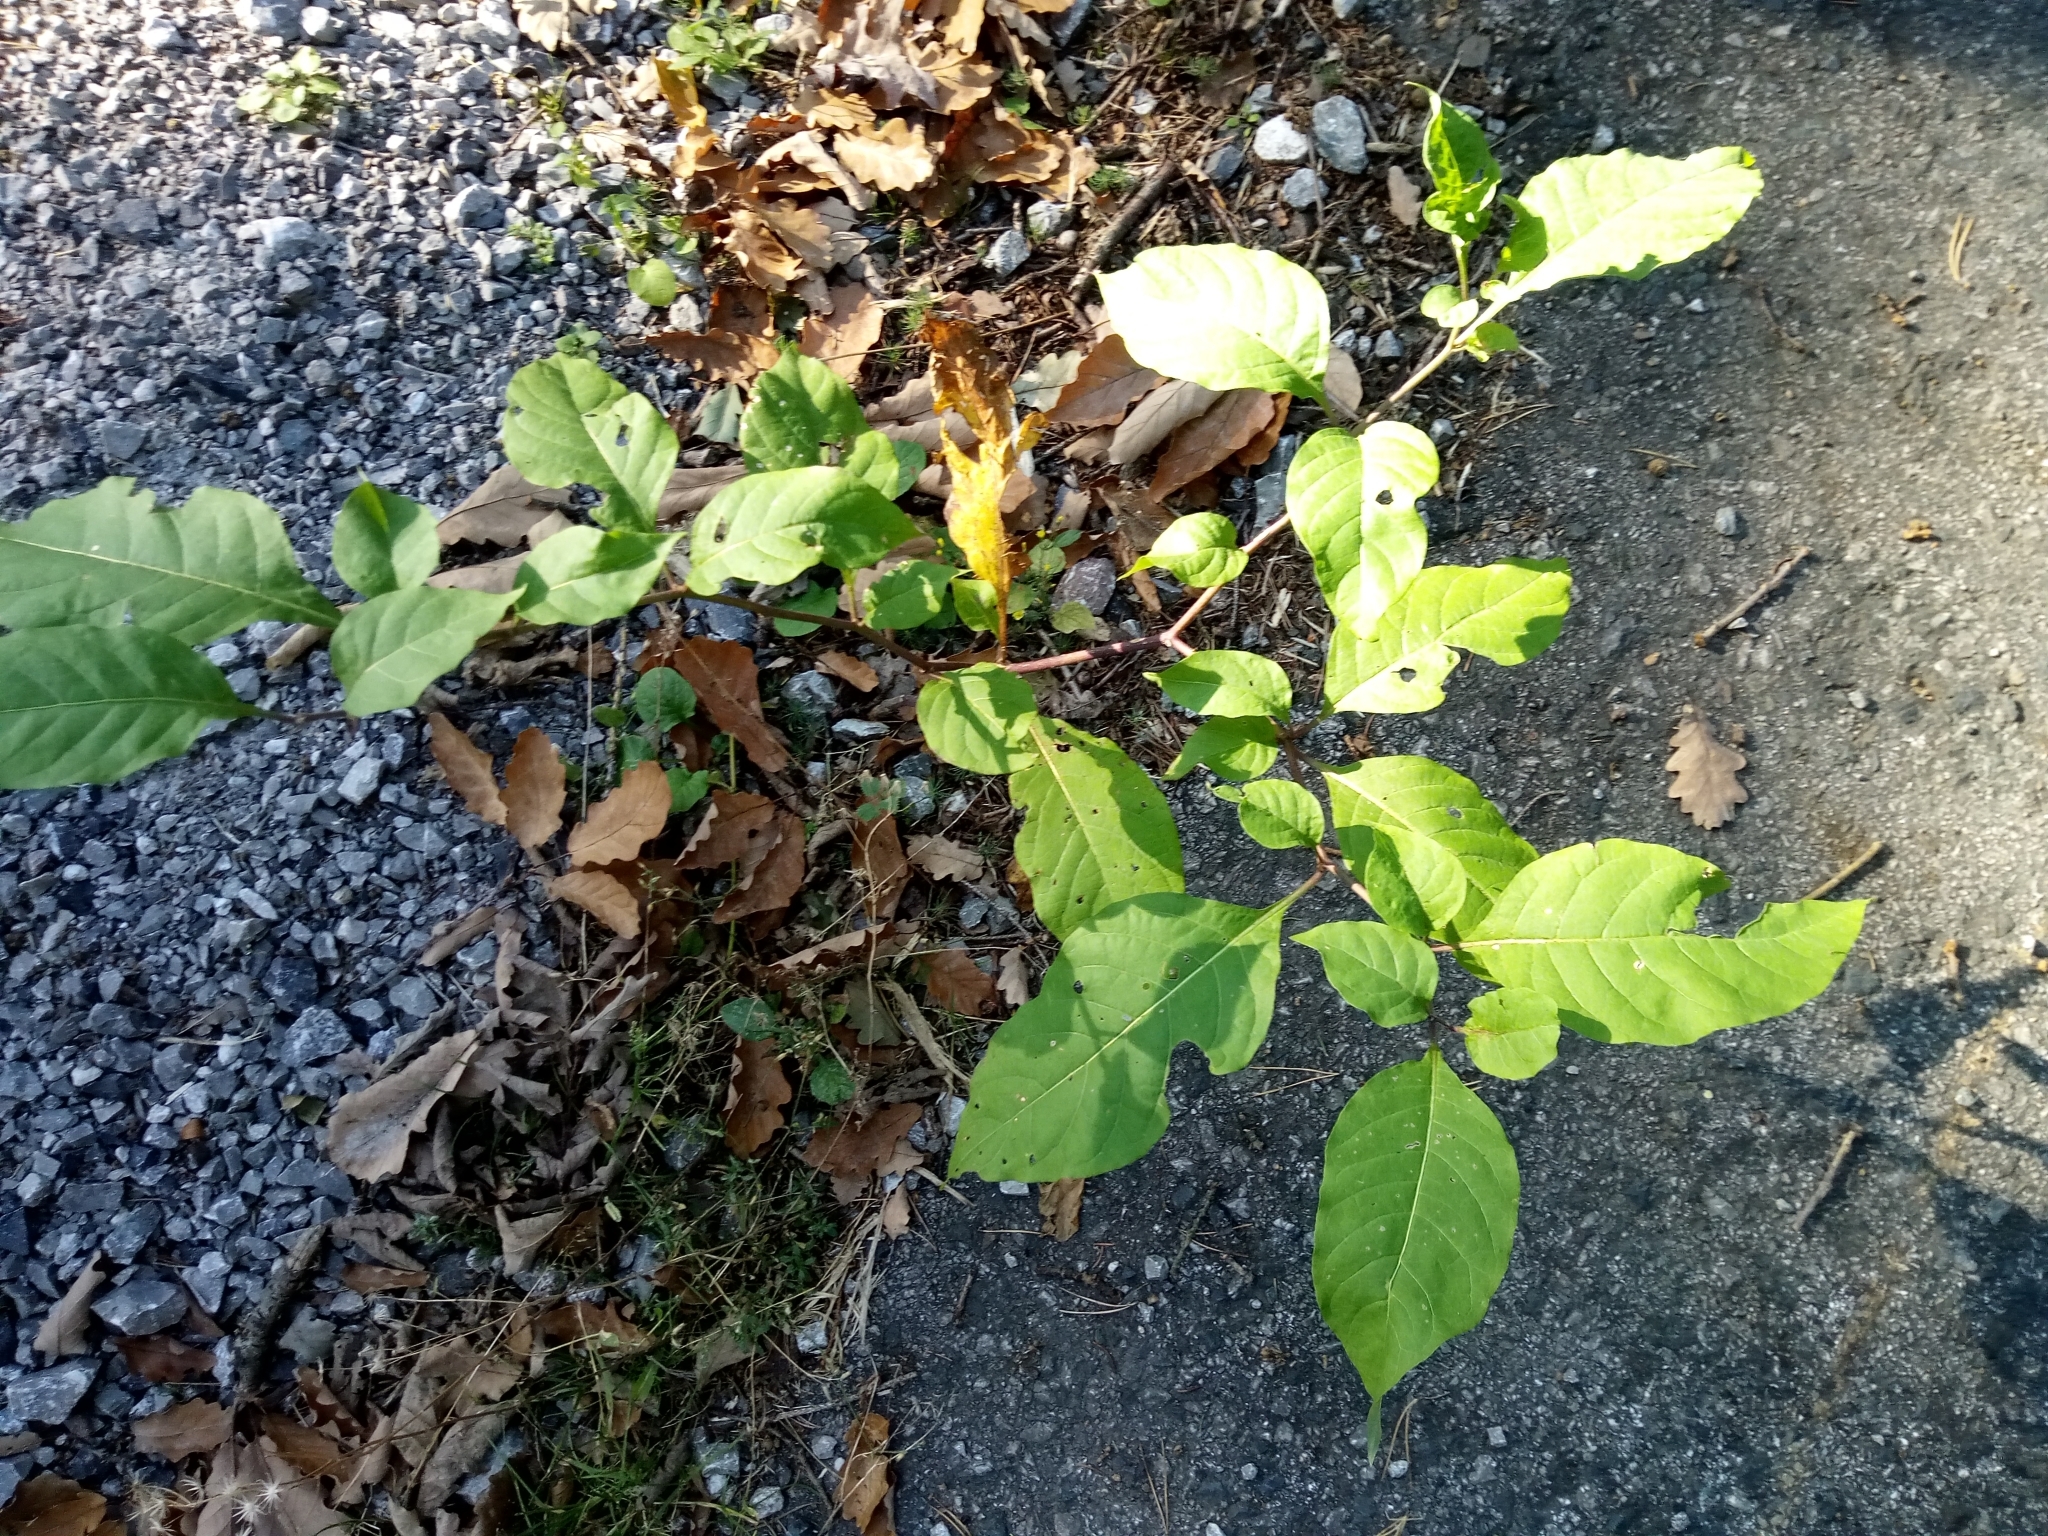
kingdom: Plantae
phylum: Tracheophyta
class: Magnoliopsida
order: Solanales
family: Solanaceae
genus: Atropa
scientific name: Atropa belladonna
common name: Deadly nightshade
